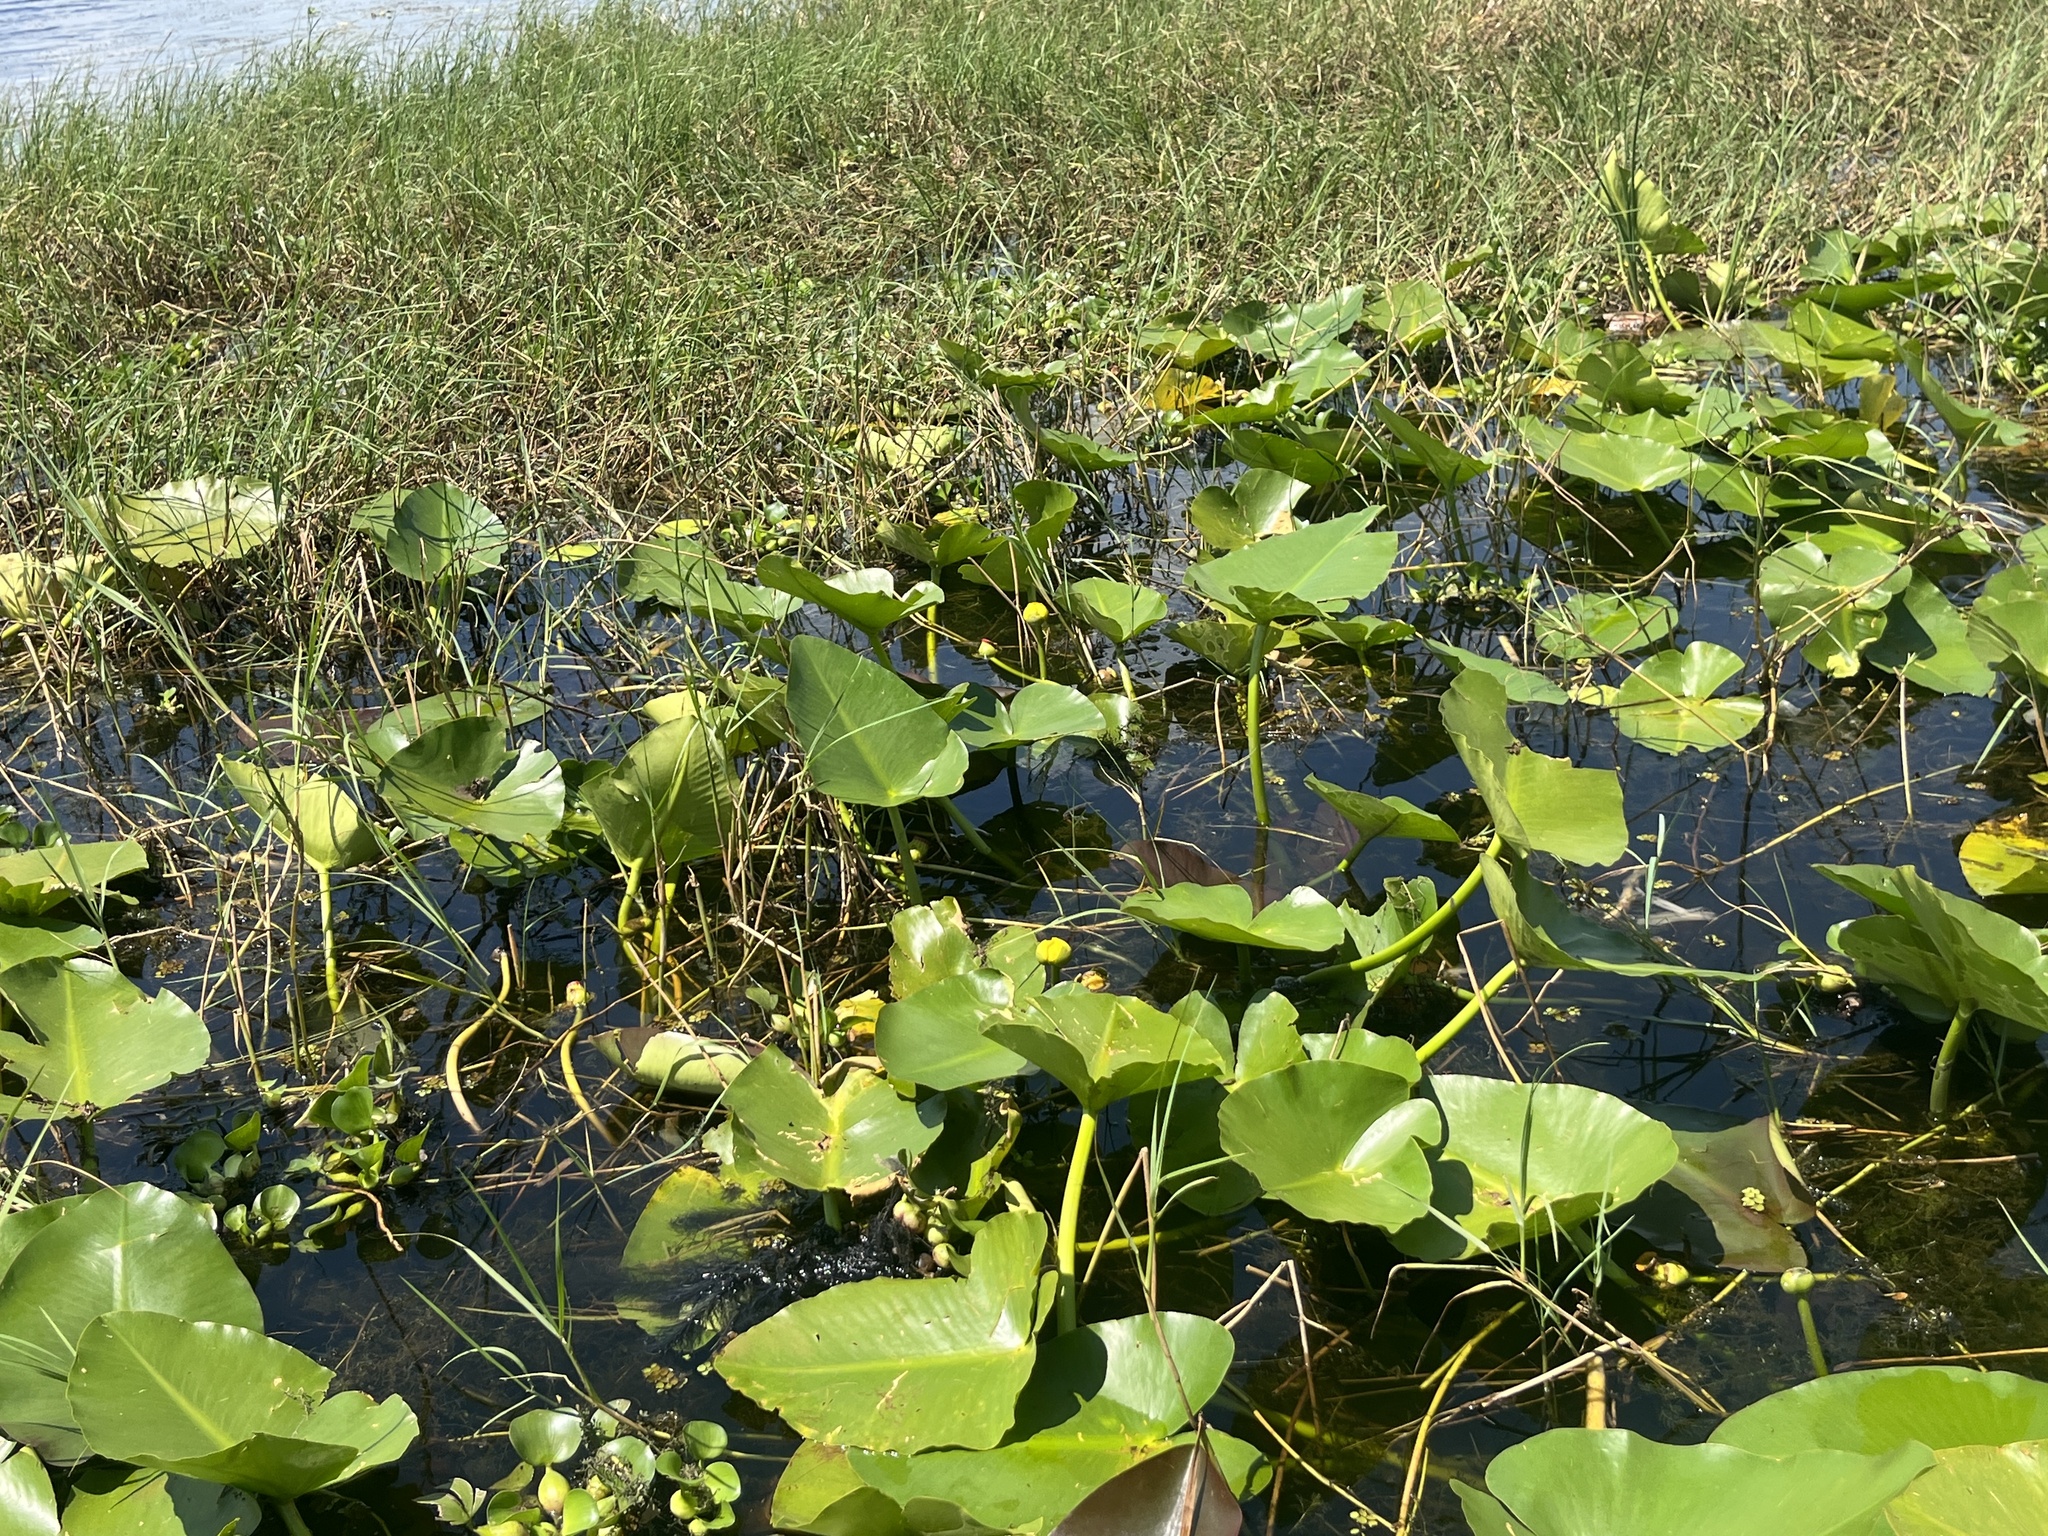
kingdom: Plantae
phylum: Tracheophyta
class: Magnoliopsida
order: Nymphaeales
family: Nymphaeaceae
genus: Nuphar
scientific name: Nuphar advena
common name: Spatter-dock
